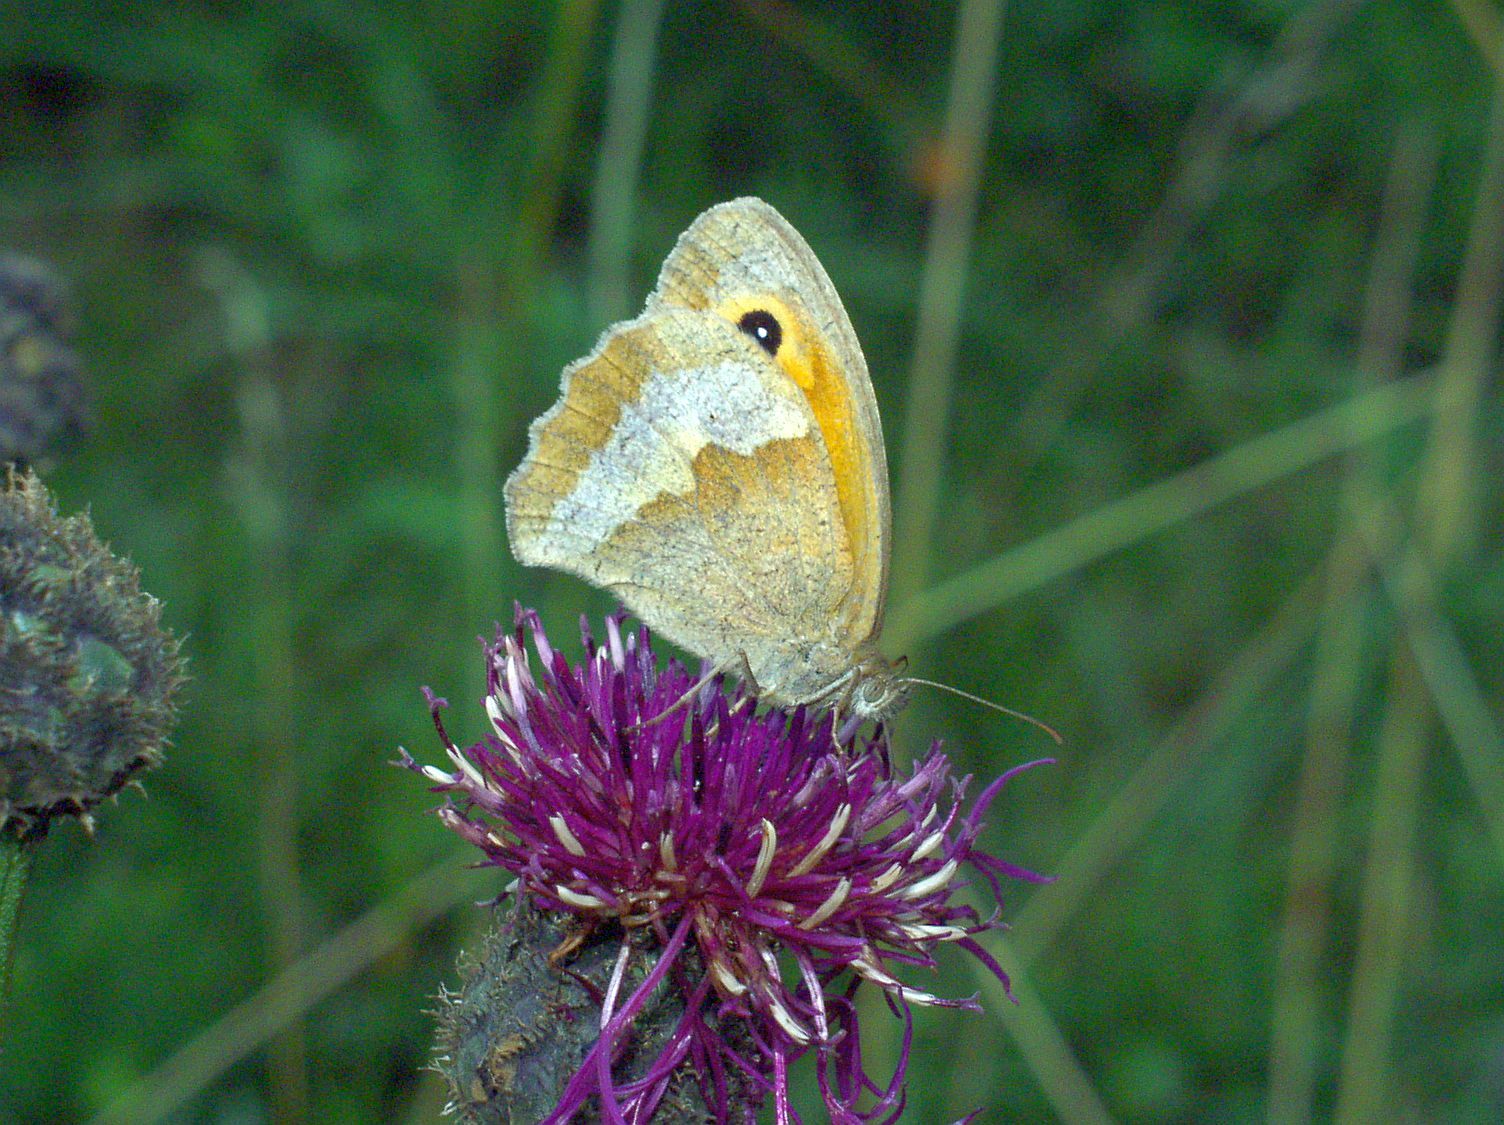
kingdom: Animalia
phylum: Arthropoda
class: Insecta
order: Lepidoptera
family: Nymphalidae
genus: Maniola
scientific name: Maniola jurtina
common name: Meadow brown
